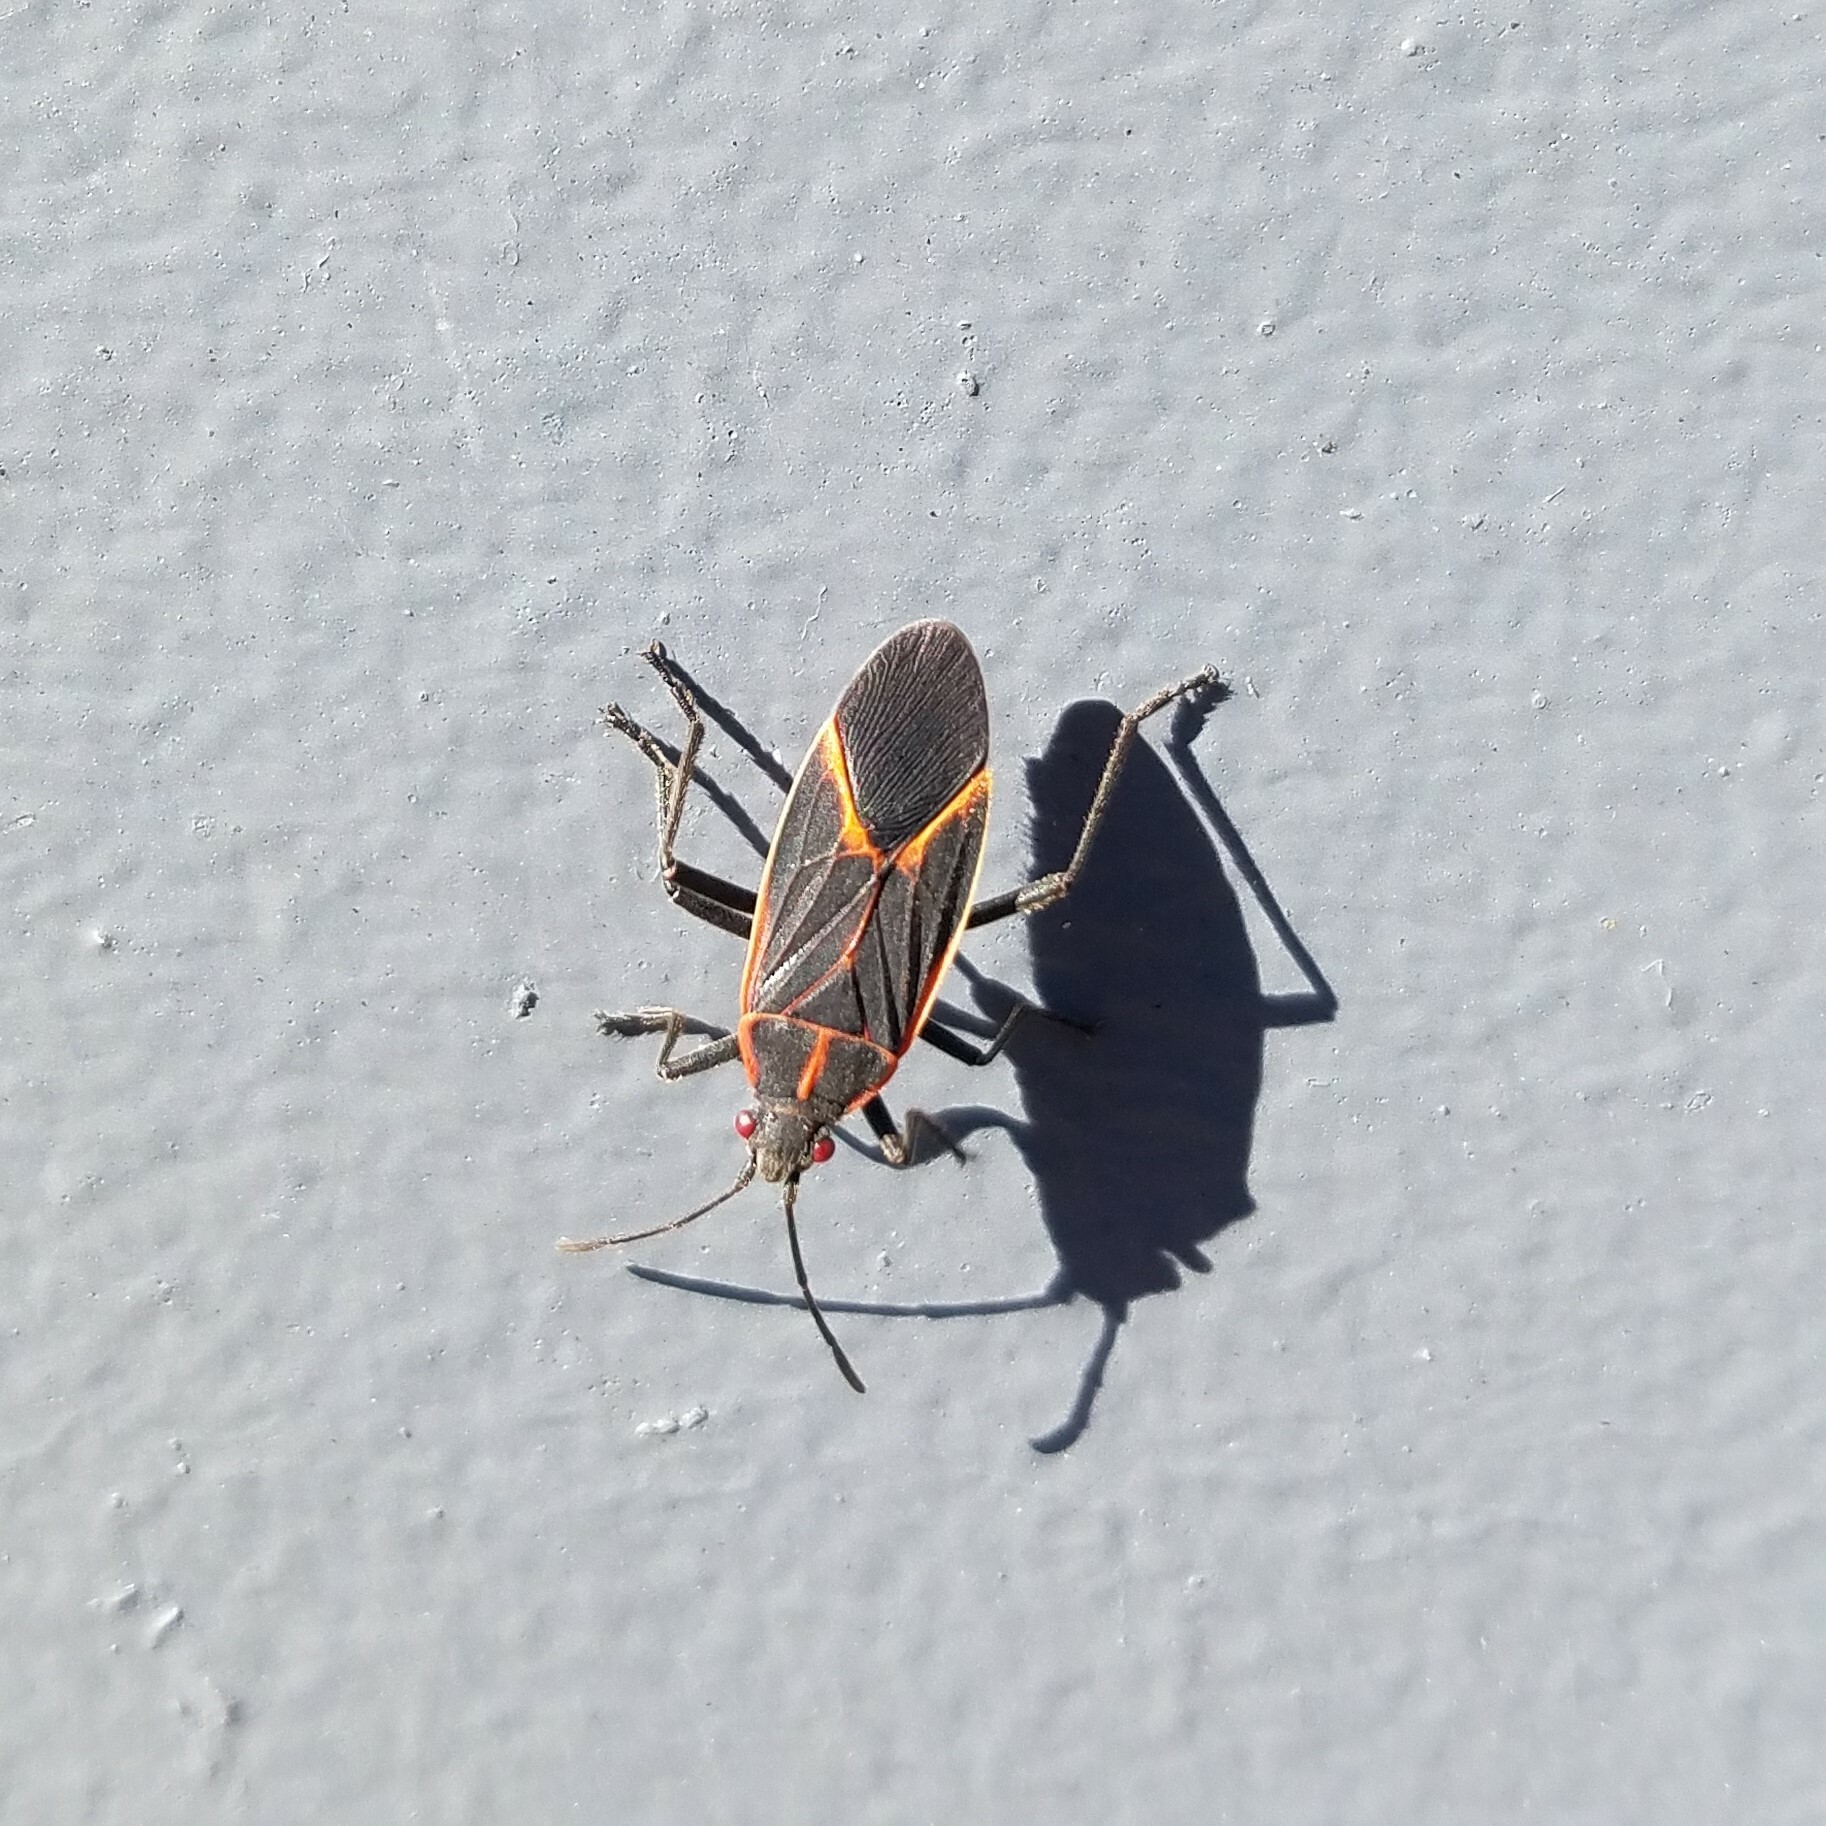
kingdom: Animalia
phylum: Arthropoda
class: Insecta
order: Hemiptera
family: Rhopalidae
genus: Boisea
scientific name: Boisea trivittata
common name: Boxelder bug
